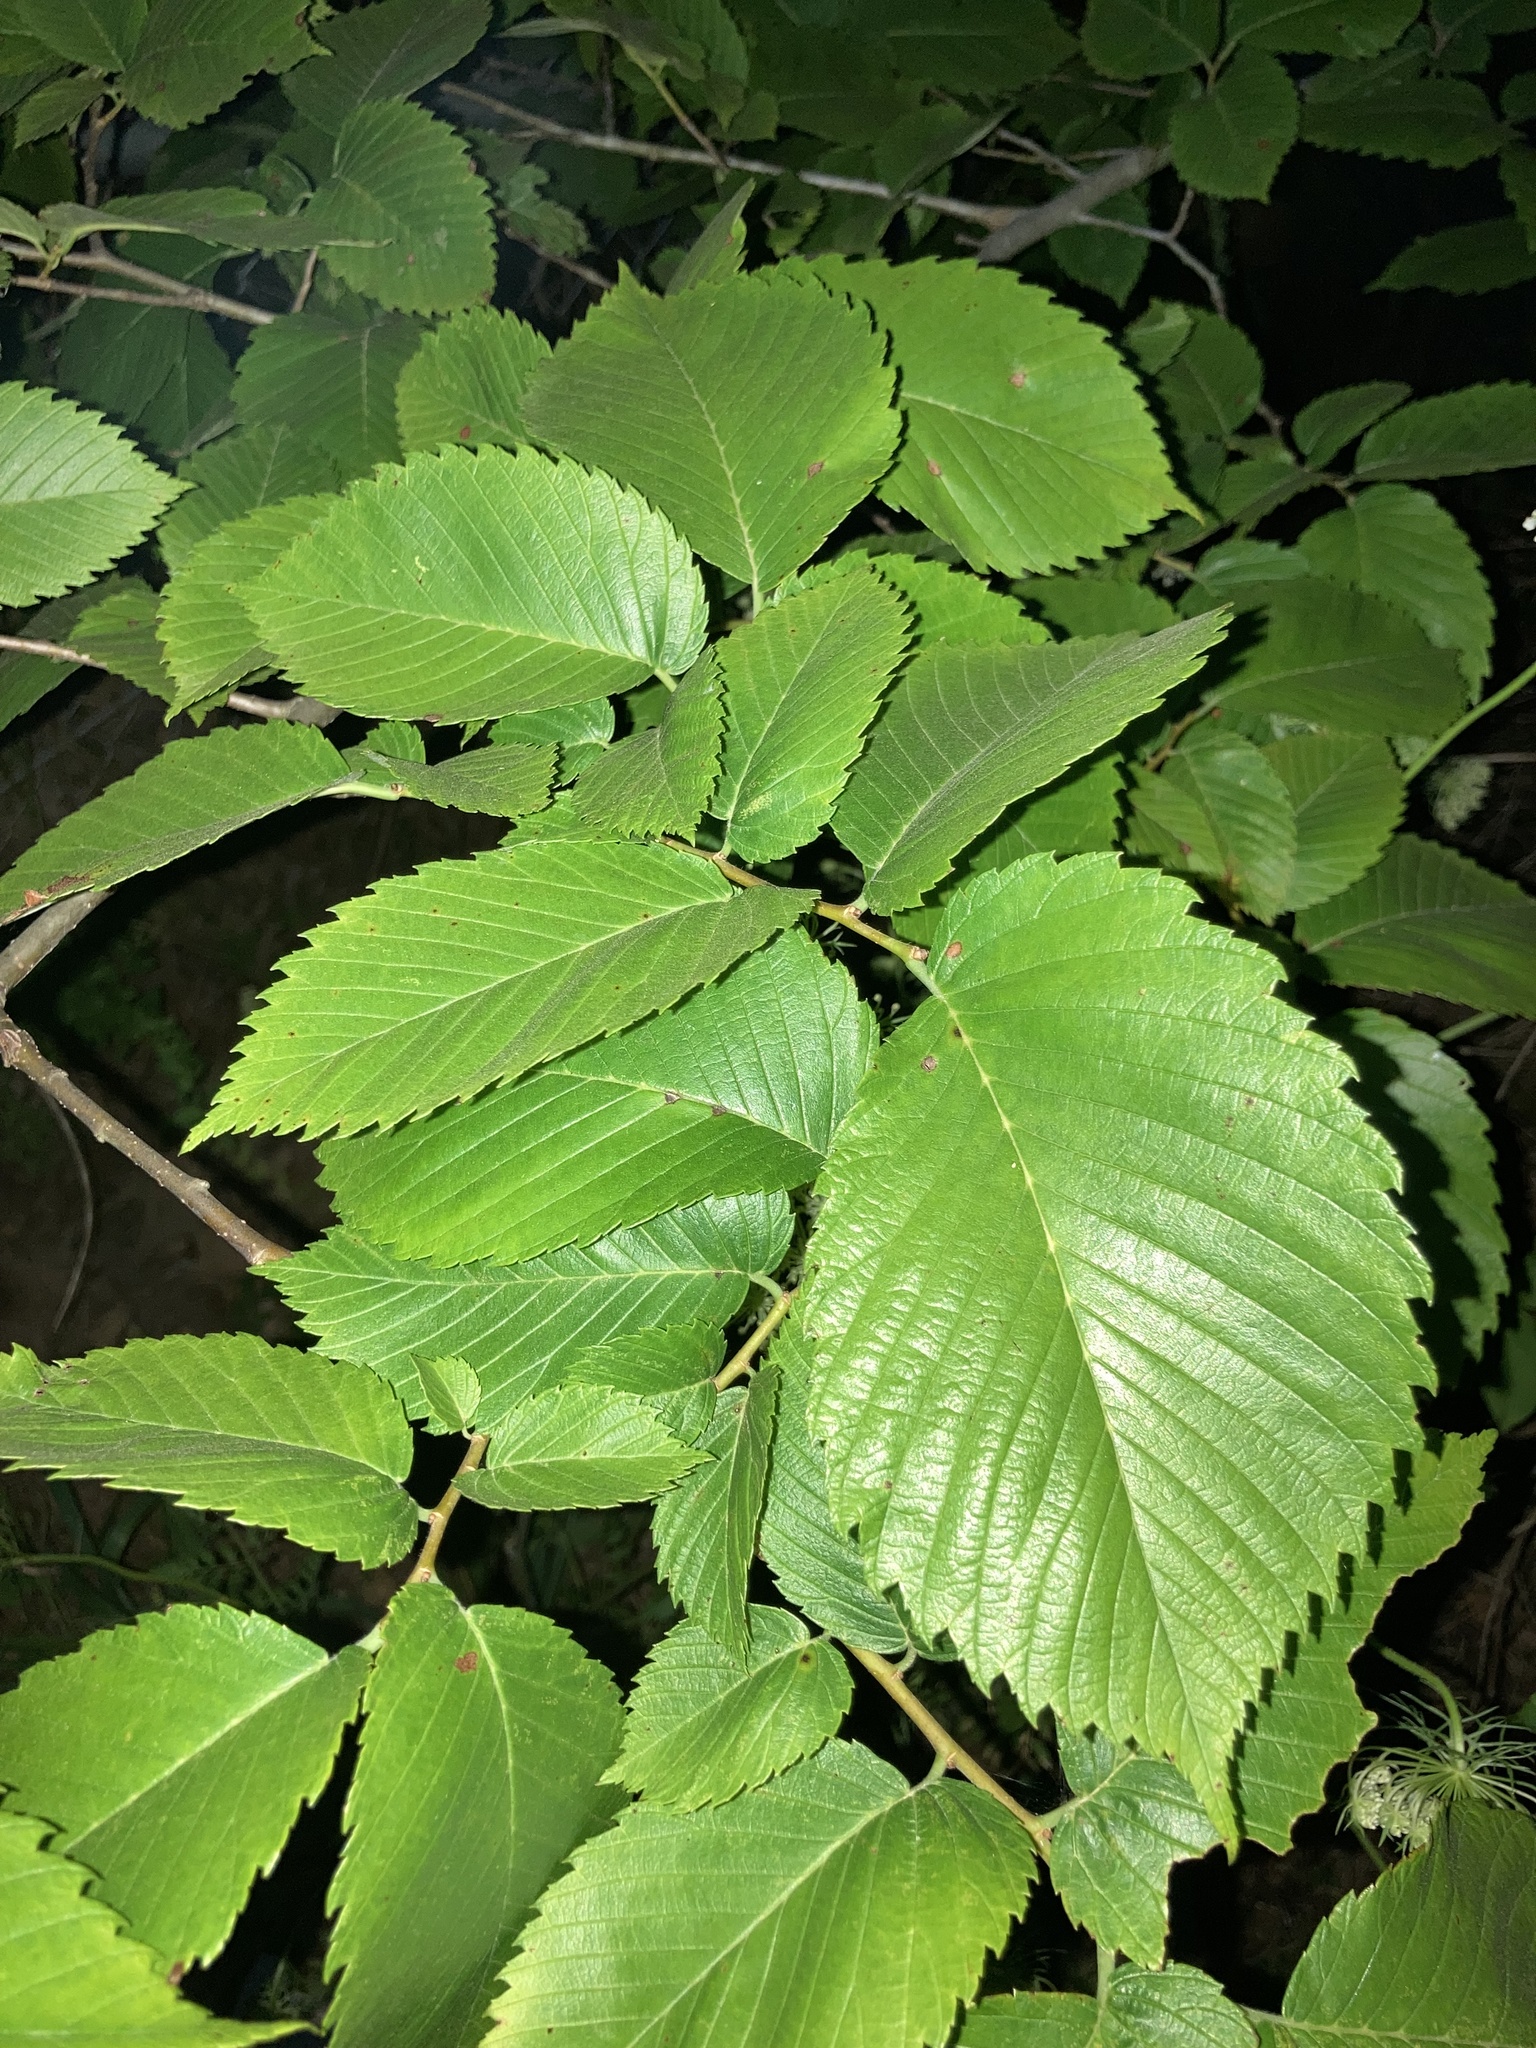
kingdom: Plantae
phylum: Tracheophyta
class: Magnoliopsida
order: Rosales
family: Ulmaceae
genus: Ulmus
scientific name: Ulmus americana
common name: American elm
